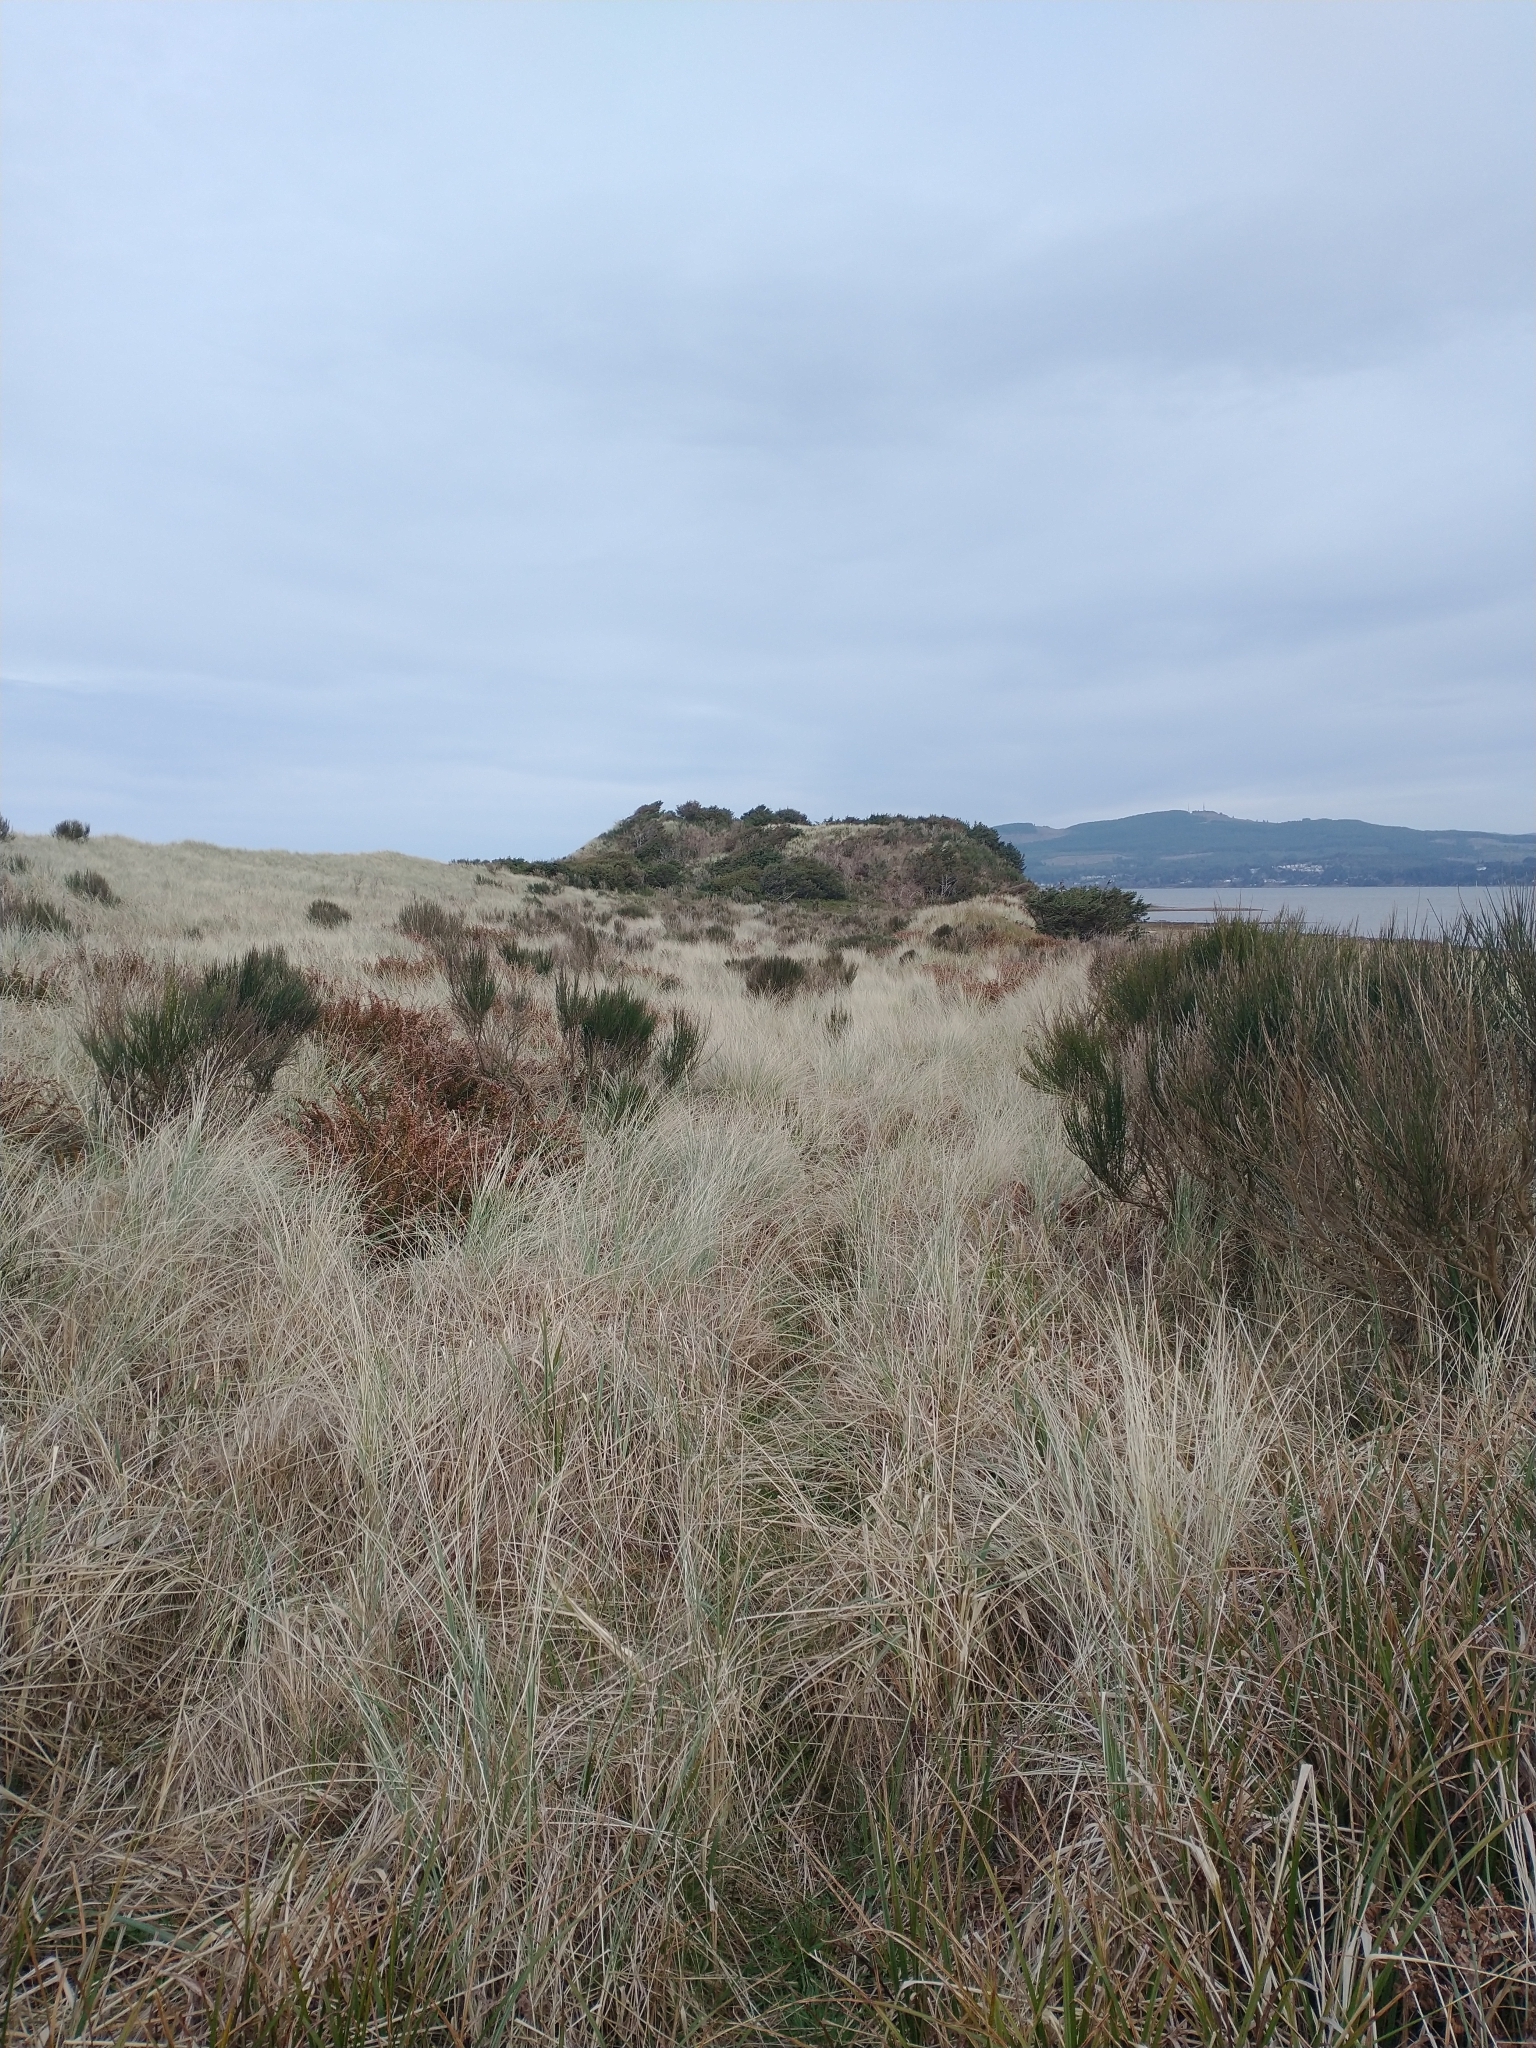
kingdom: Plantae
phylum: Tracheophyta
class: Magnoliopsida
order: Fabales
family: Fabaceae
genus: Cytisus
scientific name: Cytisus scoparius
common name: Scotch broom
